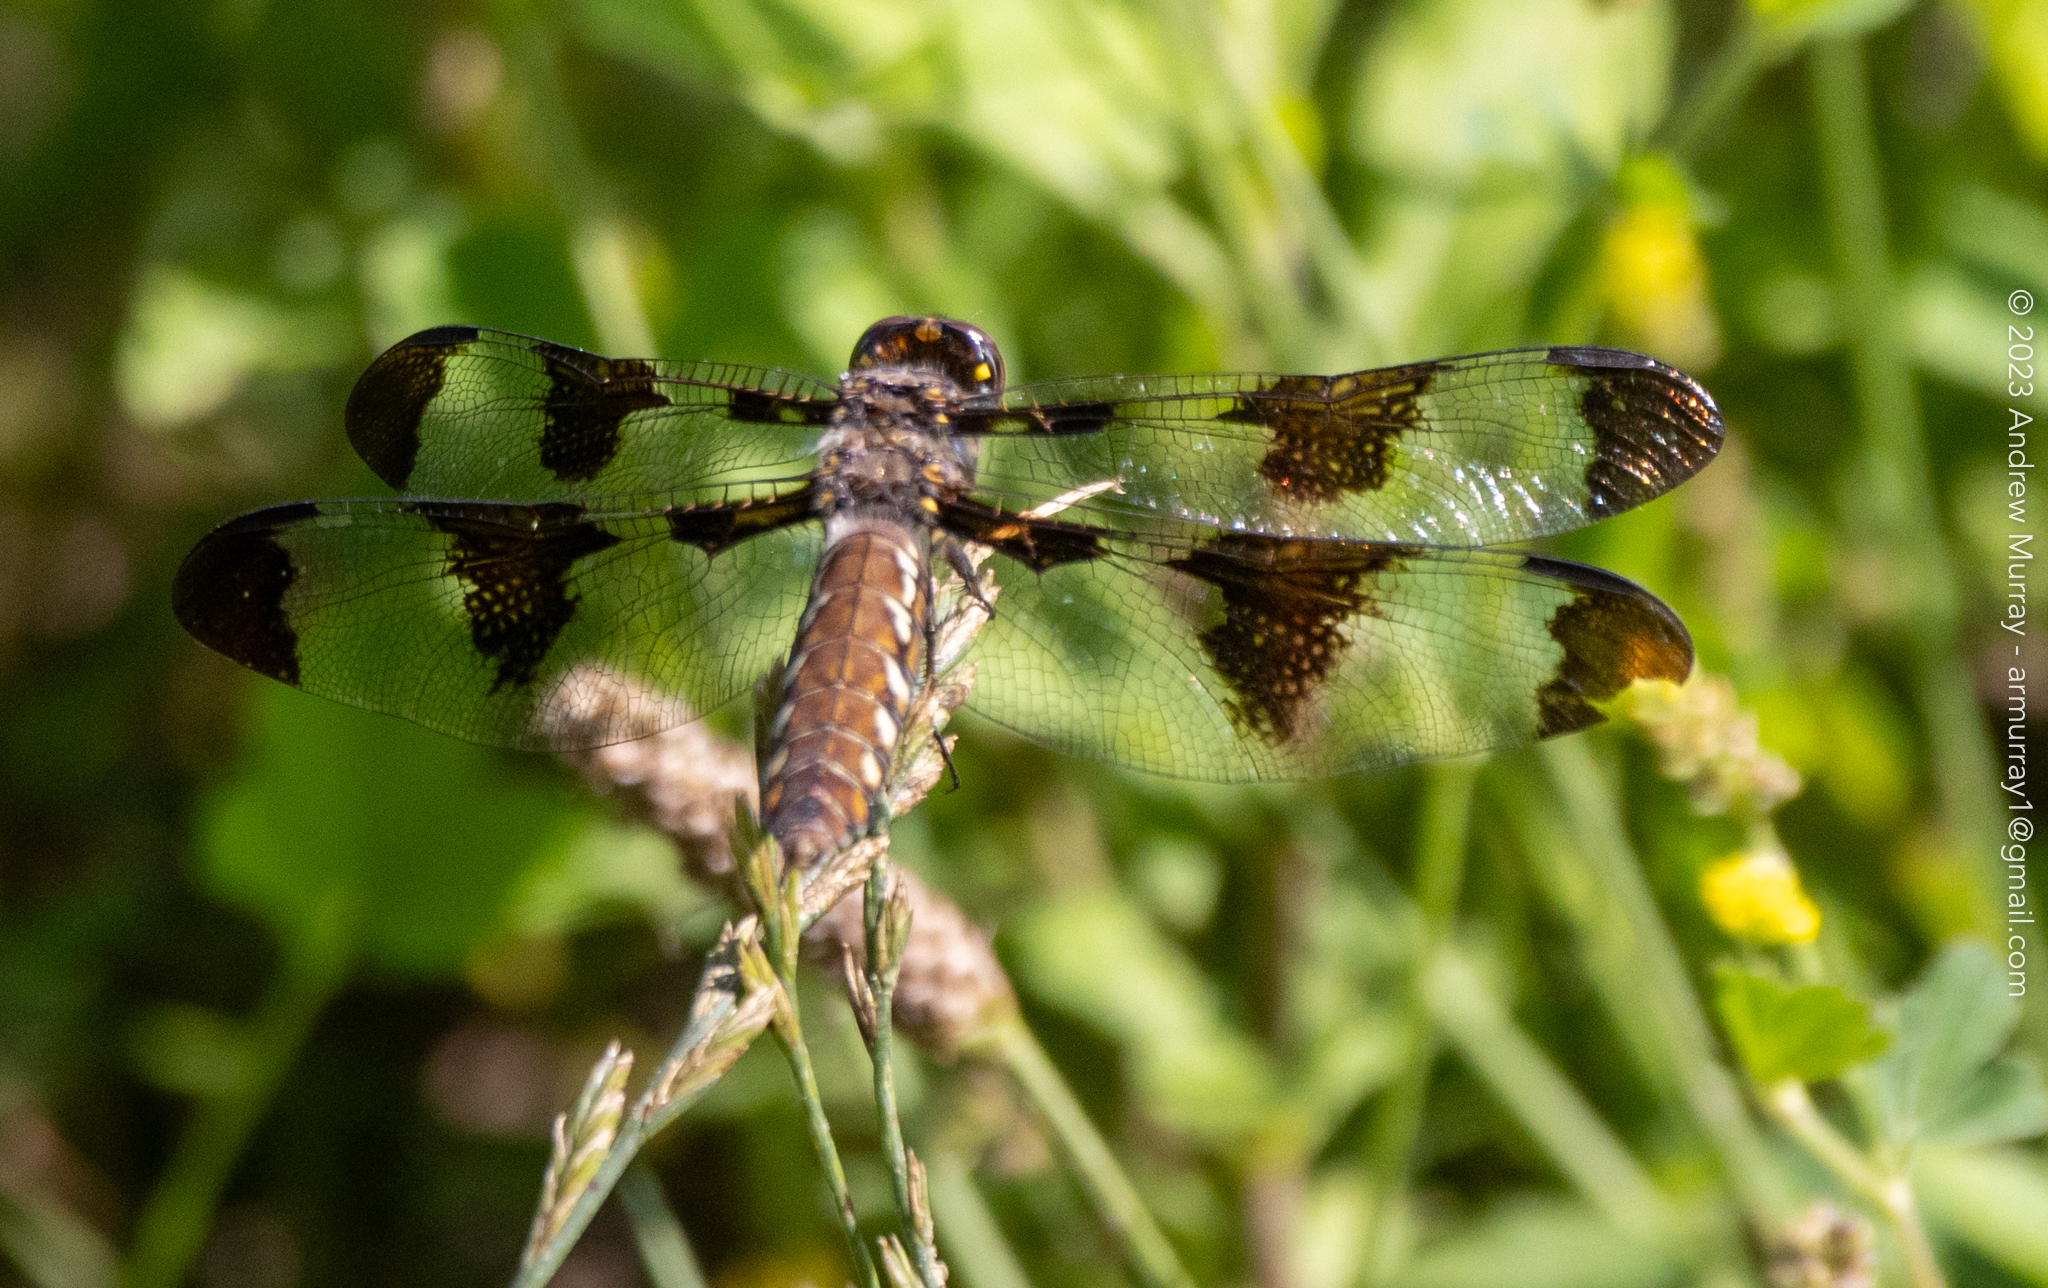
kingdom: Animalia
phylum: Arthropoda
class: Insecta
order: Odonata
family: Libellulidae
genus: Plathemis
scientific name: Plathemis lydia
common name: Common whitetail
